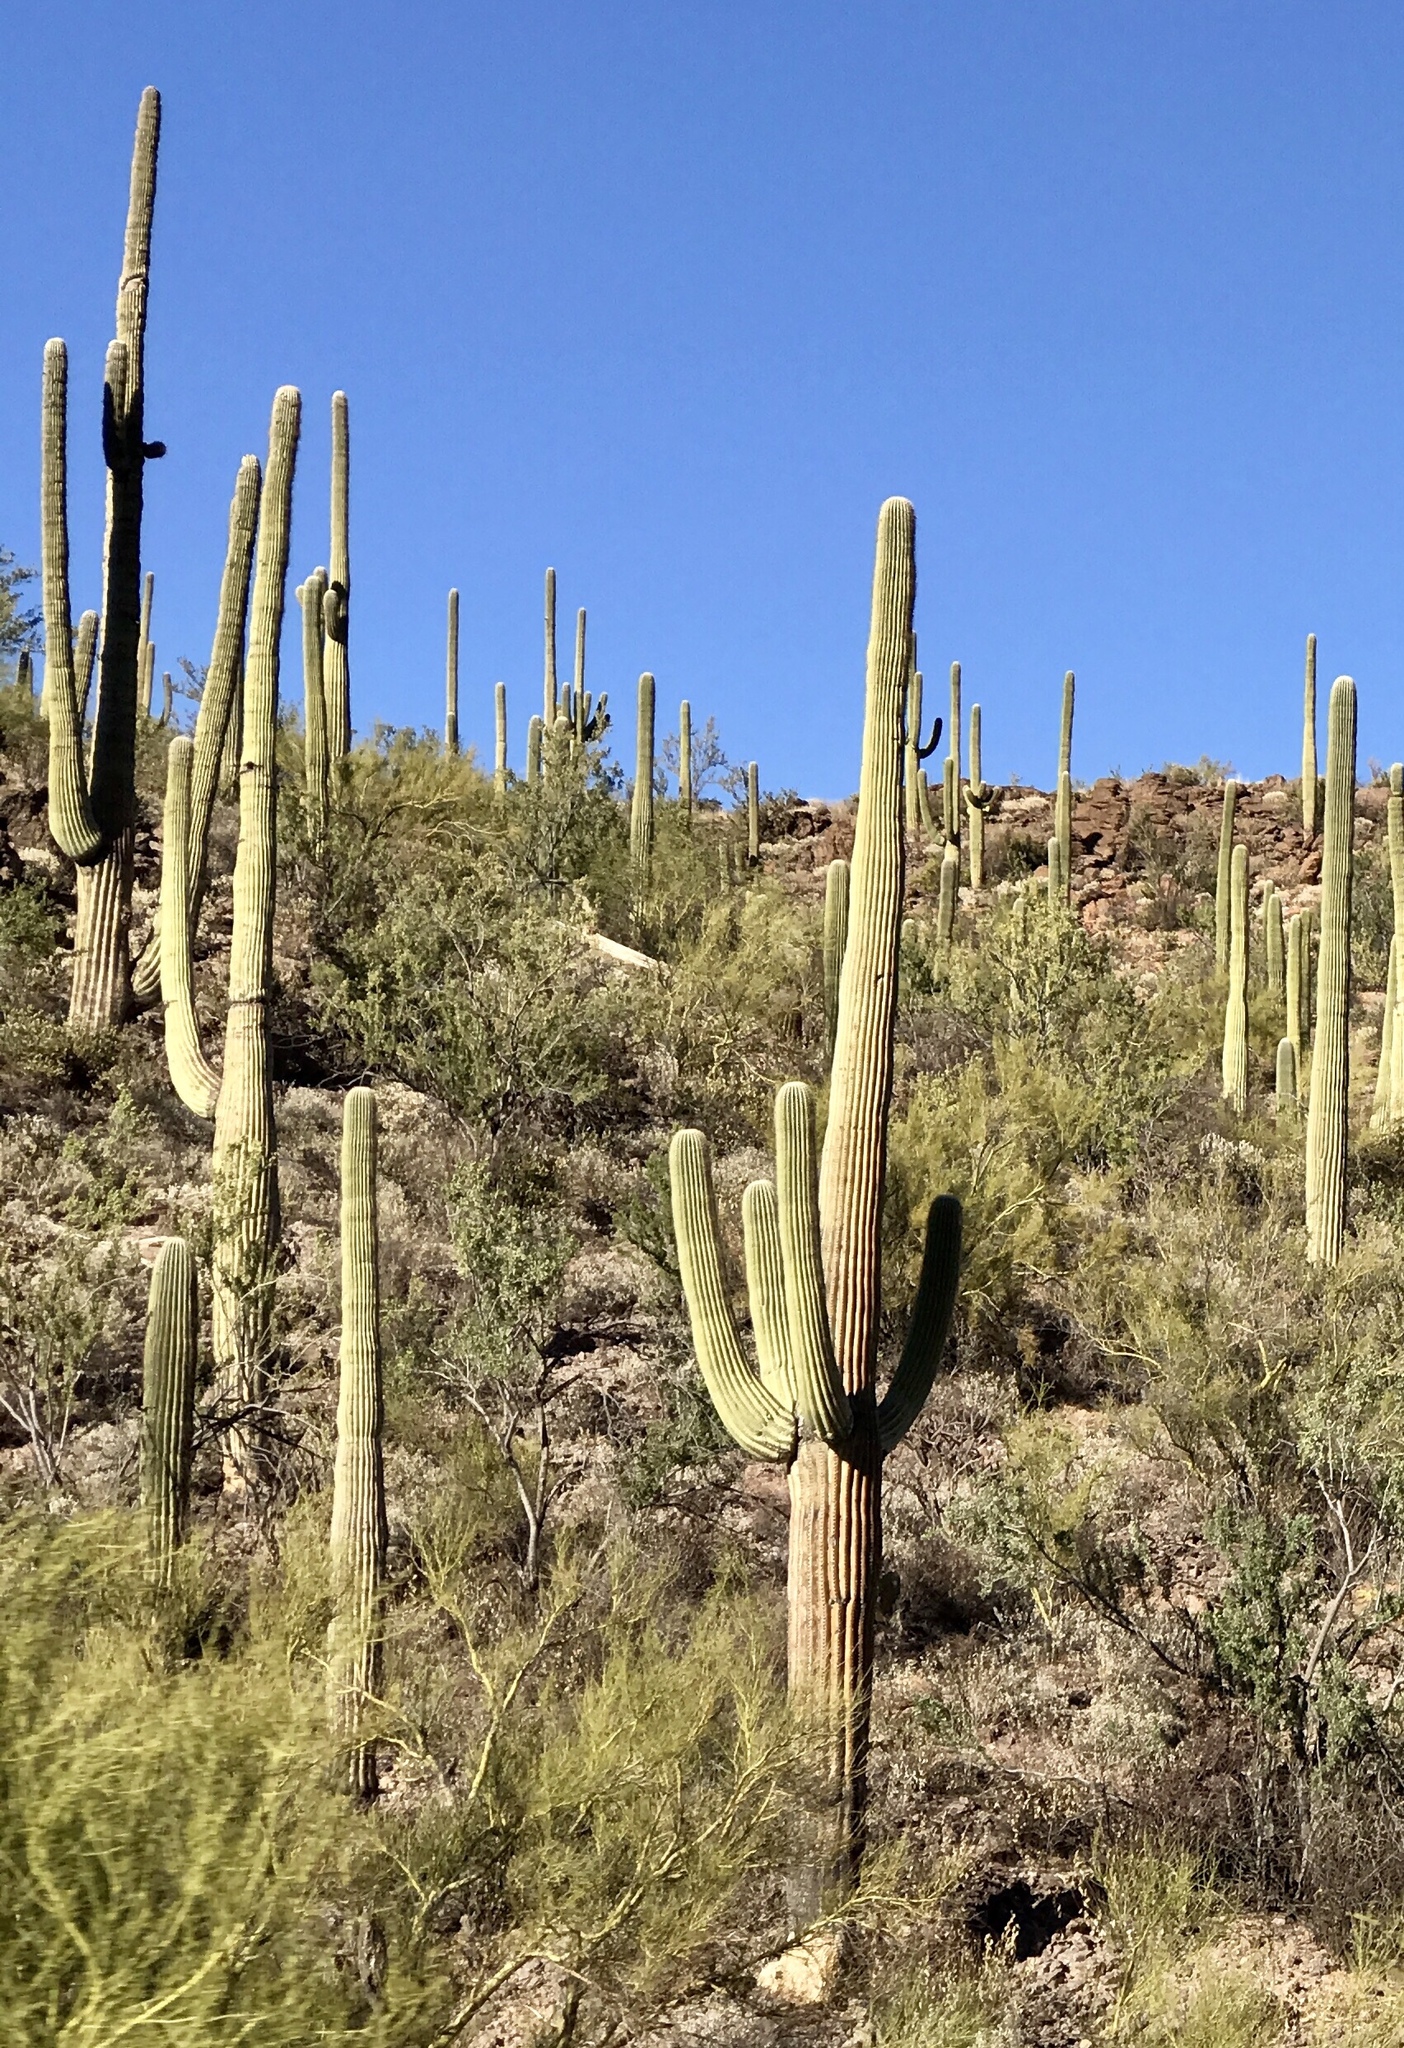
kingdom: Plantae
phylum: Tracheophyta
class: Magnoliopsida
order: Caryophyllales
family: Cactaceae
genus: Carnegiea
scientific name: Carnegiea gigantea
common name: Saguaro
